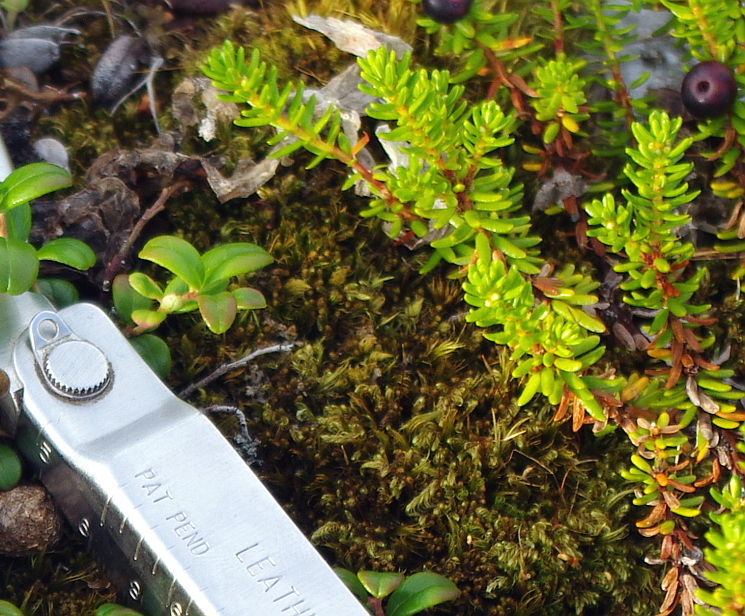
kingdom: Plantae
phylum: Tracheophyta
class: Magnoliopsida
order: Ericales
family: Ericaceae
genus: Empetrum
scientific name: Empetrum nigrum
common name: Black crowberry
